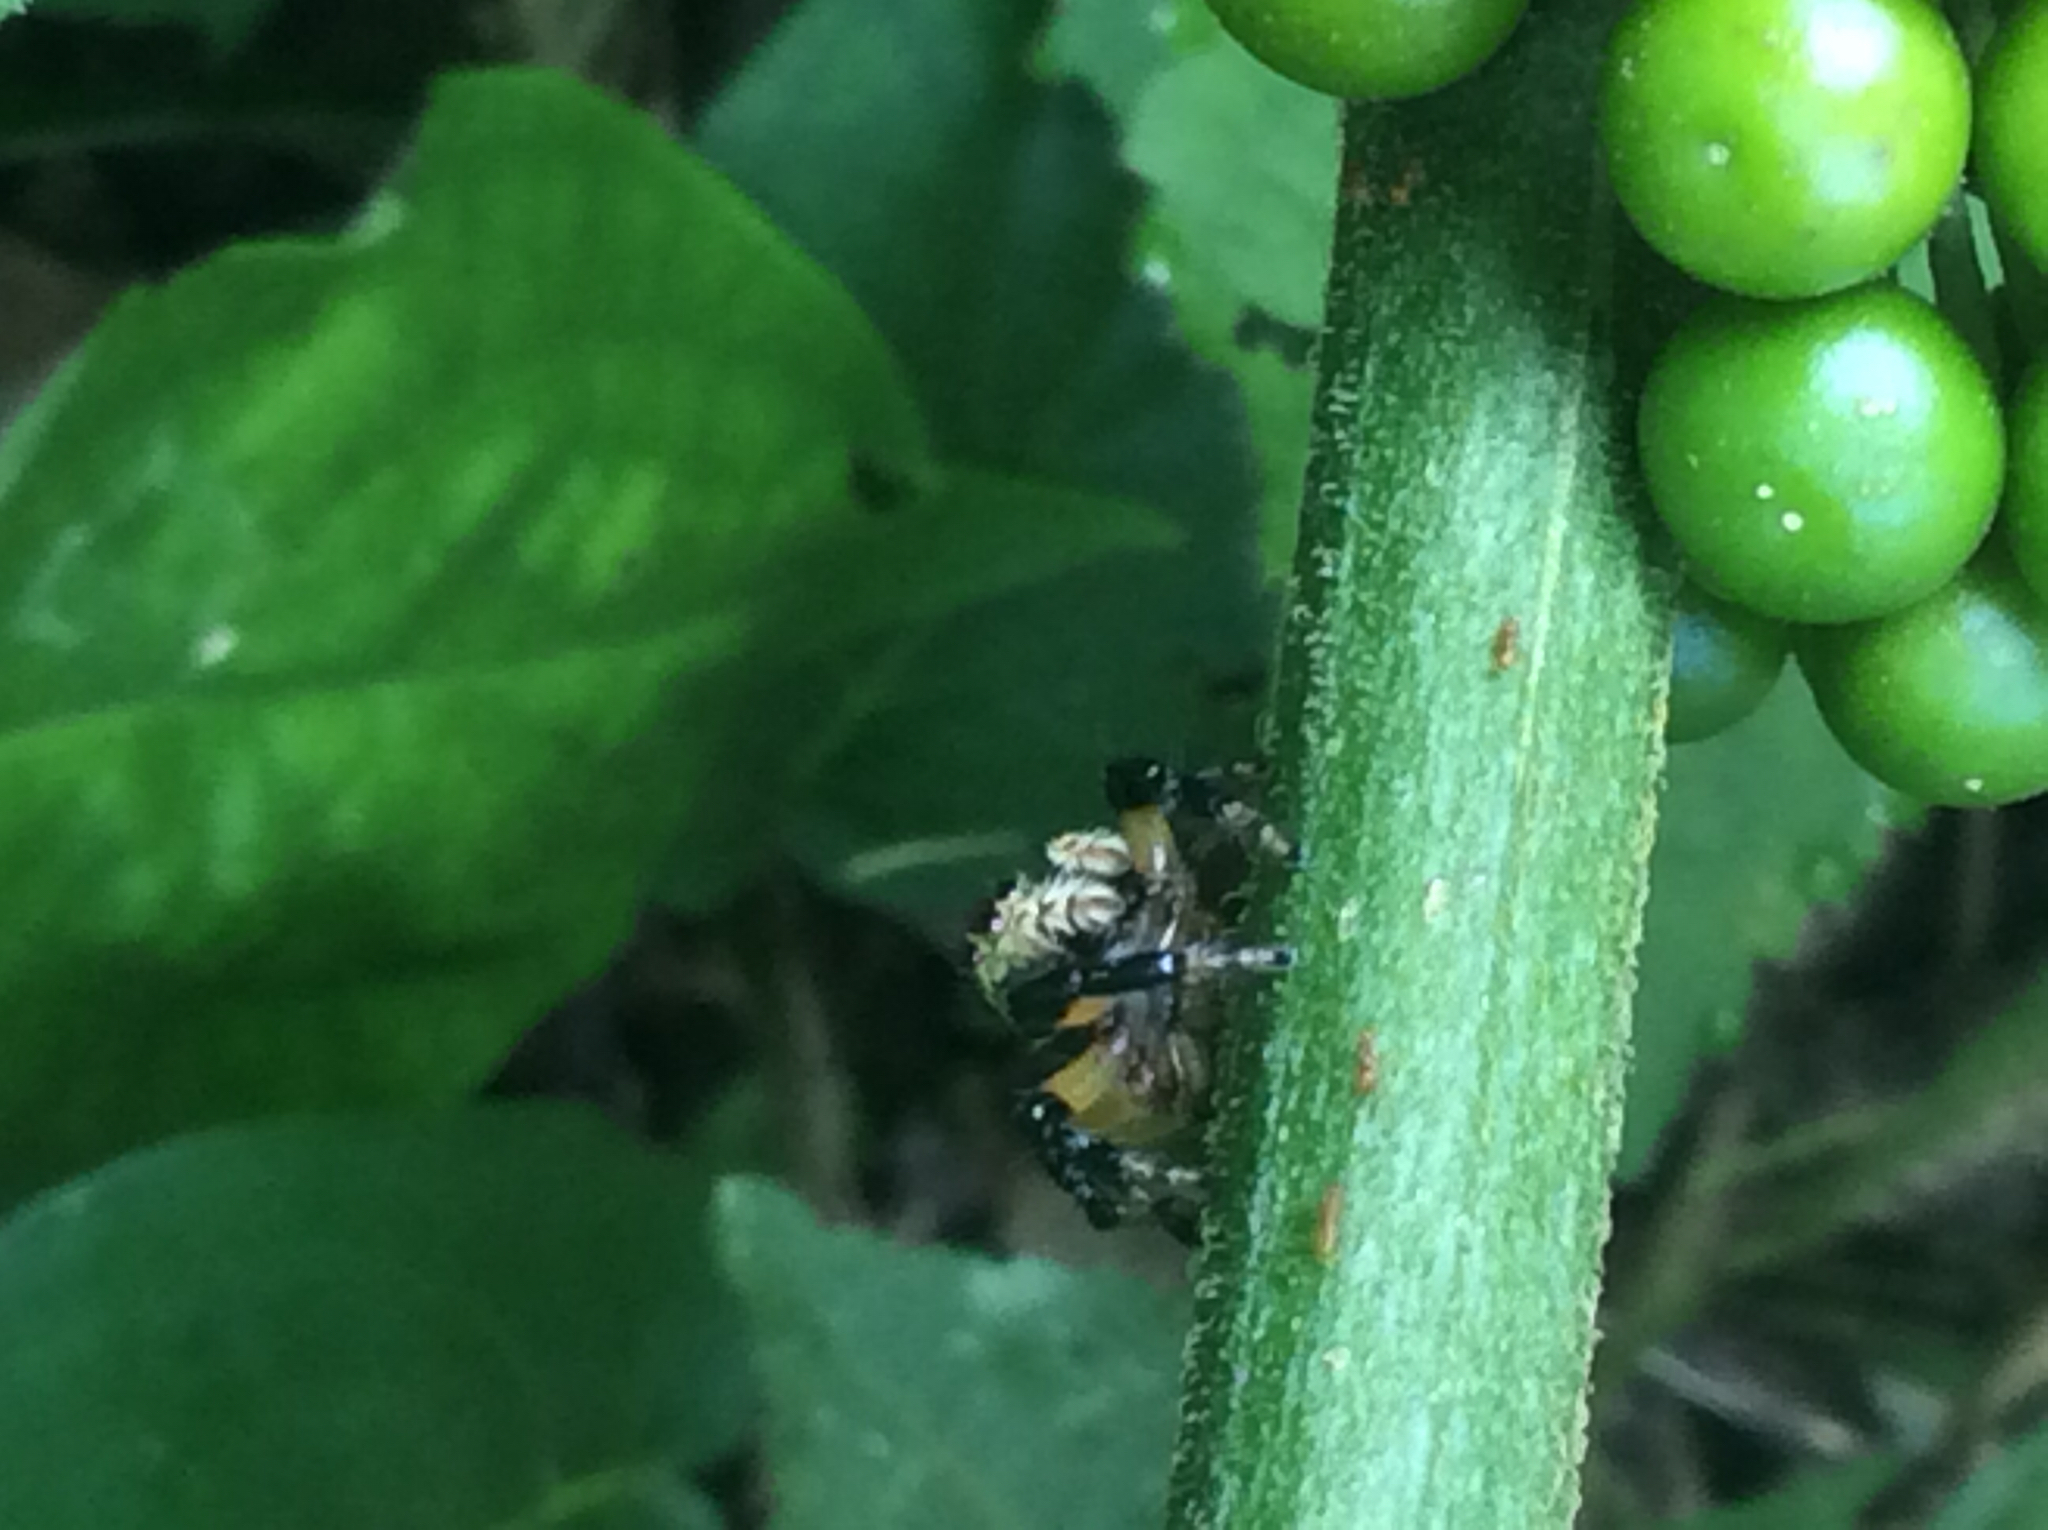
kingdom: Animalia
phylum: Arthropoda
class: Arachnida
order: Araneae
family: Salticidae
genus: Phiale
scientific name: Phiale formosa
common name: Jumping spiders
